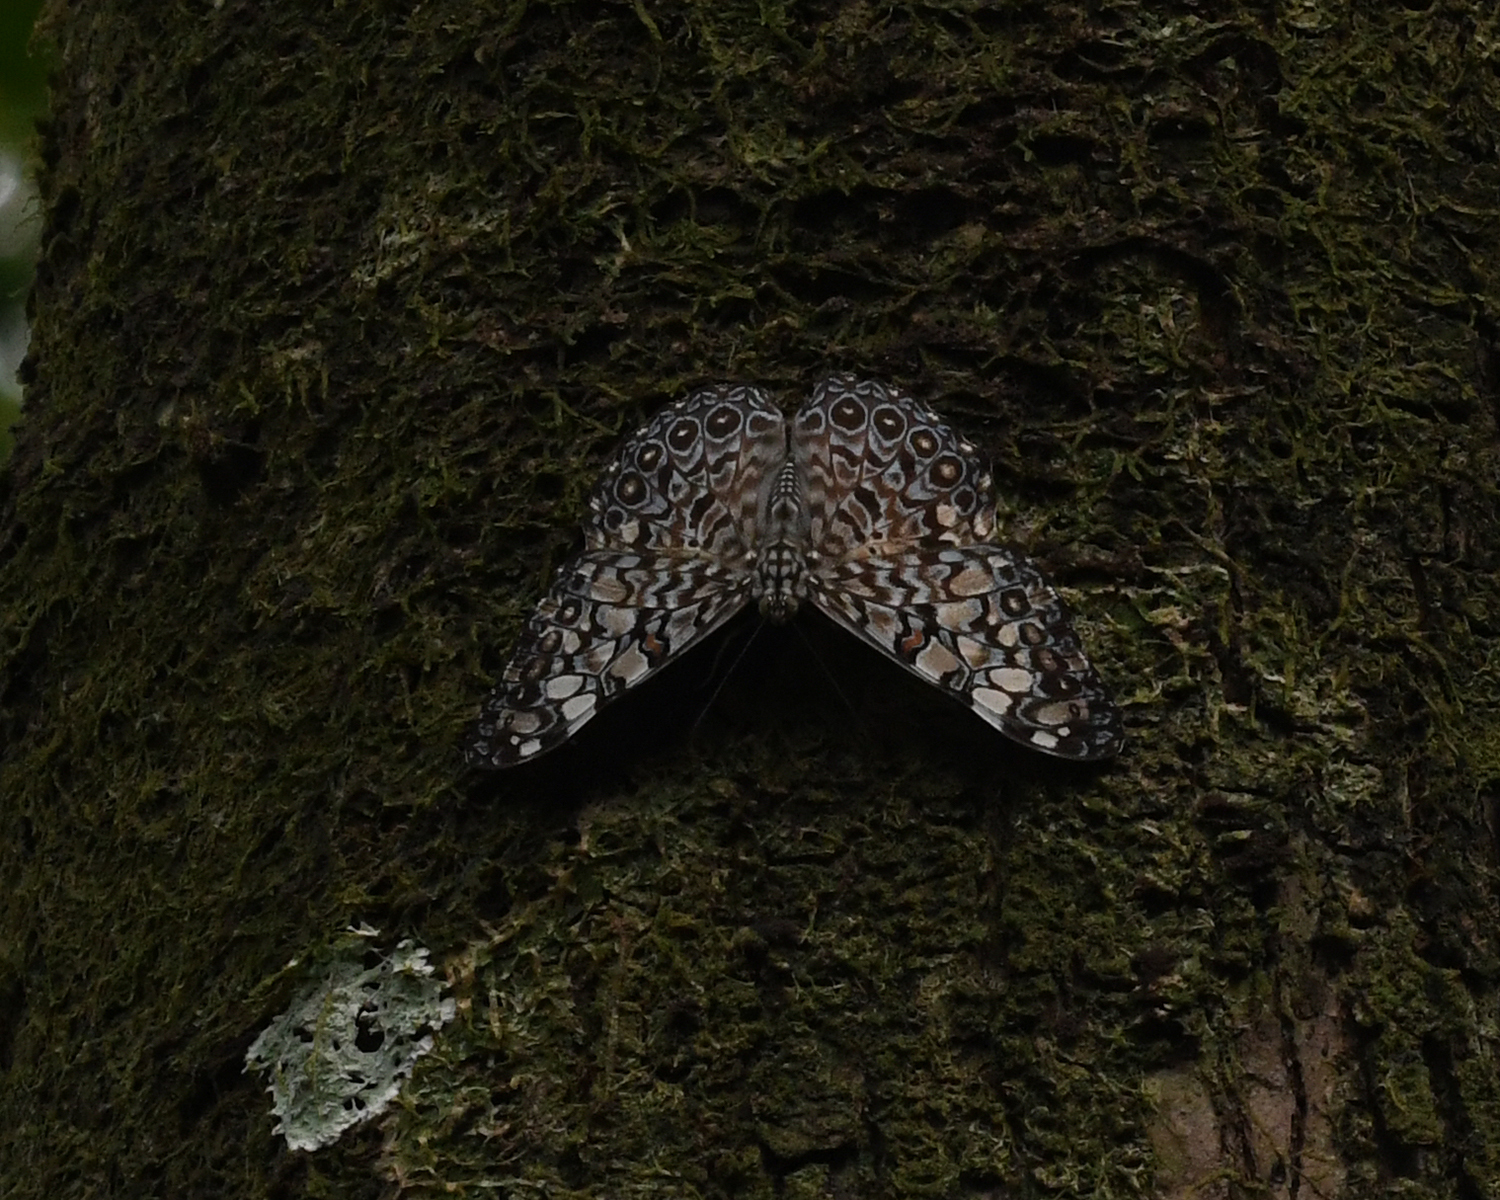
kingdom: Animalia
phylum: Arthropoda
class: Insecta
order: Lepidoptera
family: Nymphalidae
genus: Hamadryas
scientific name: Hamadryas feronia
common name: Variable cracker
